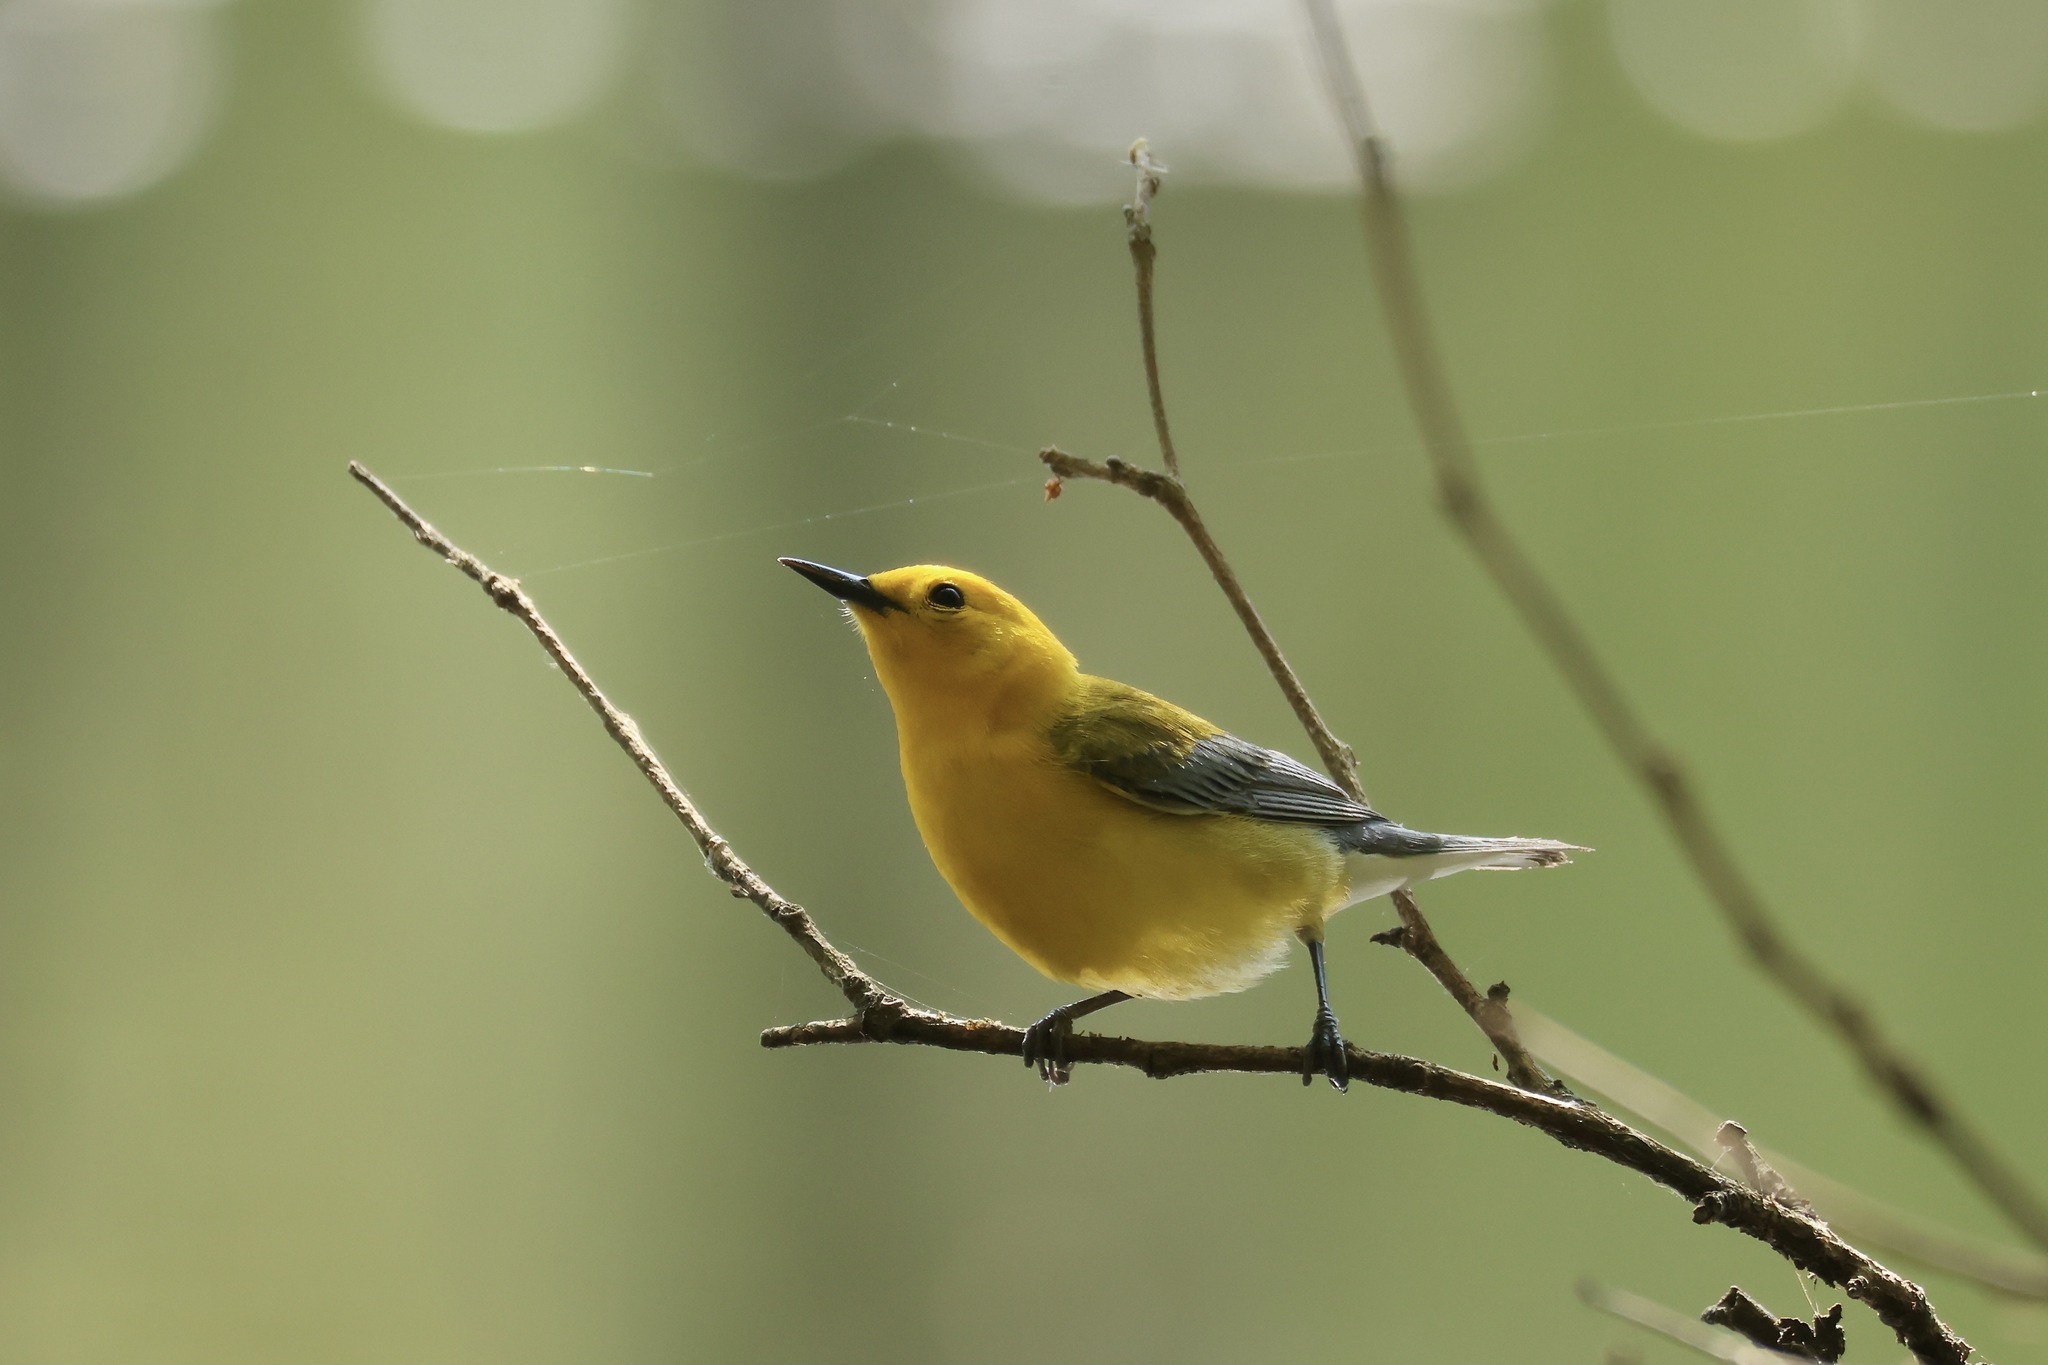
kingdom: Animalia
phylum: Chordata
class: Aves
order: Passeriformes
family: Parulidae
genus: Protonotaria
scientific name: Protonotaria citrea
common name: Prothonotary warbler
